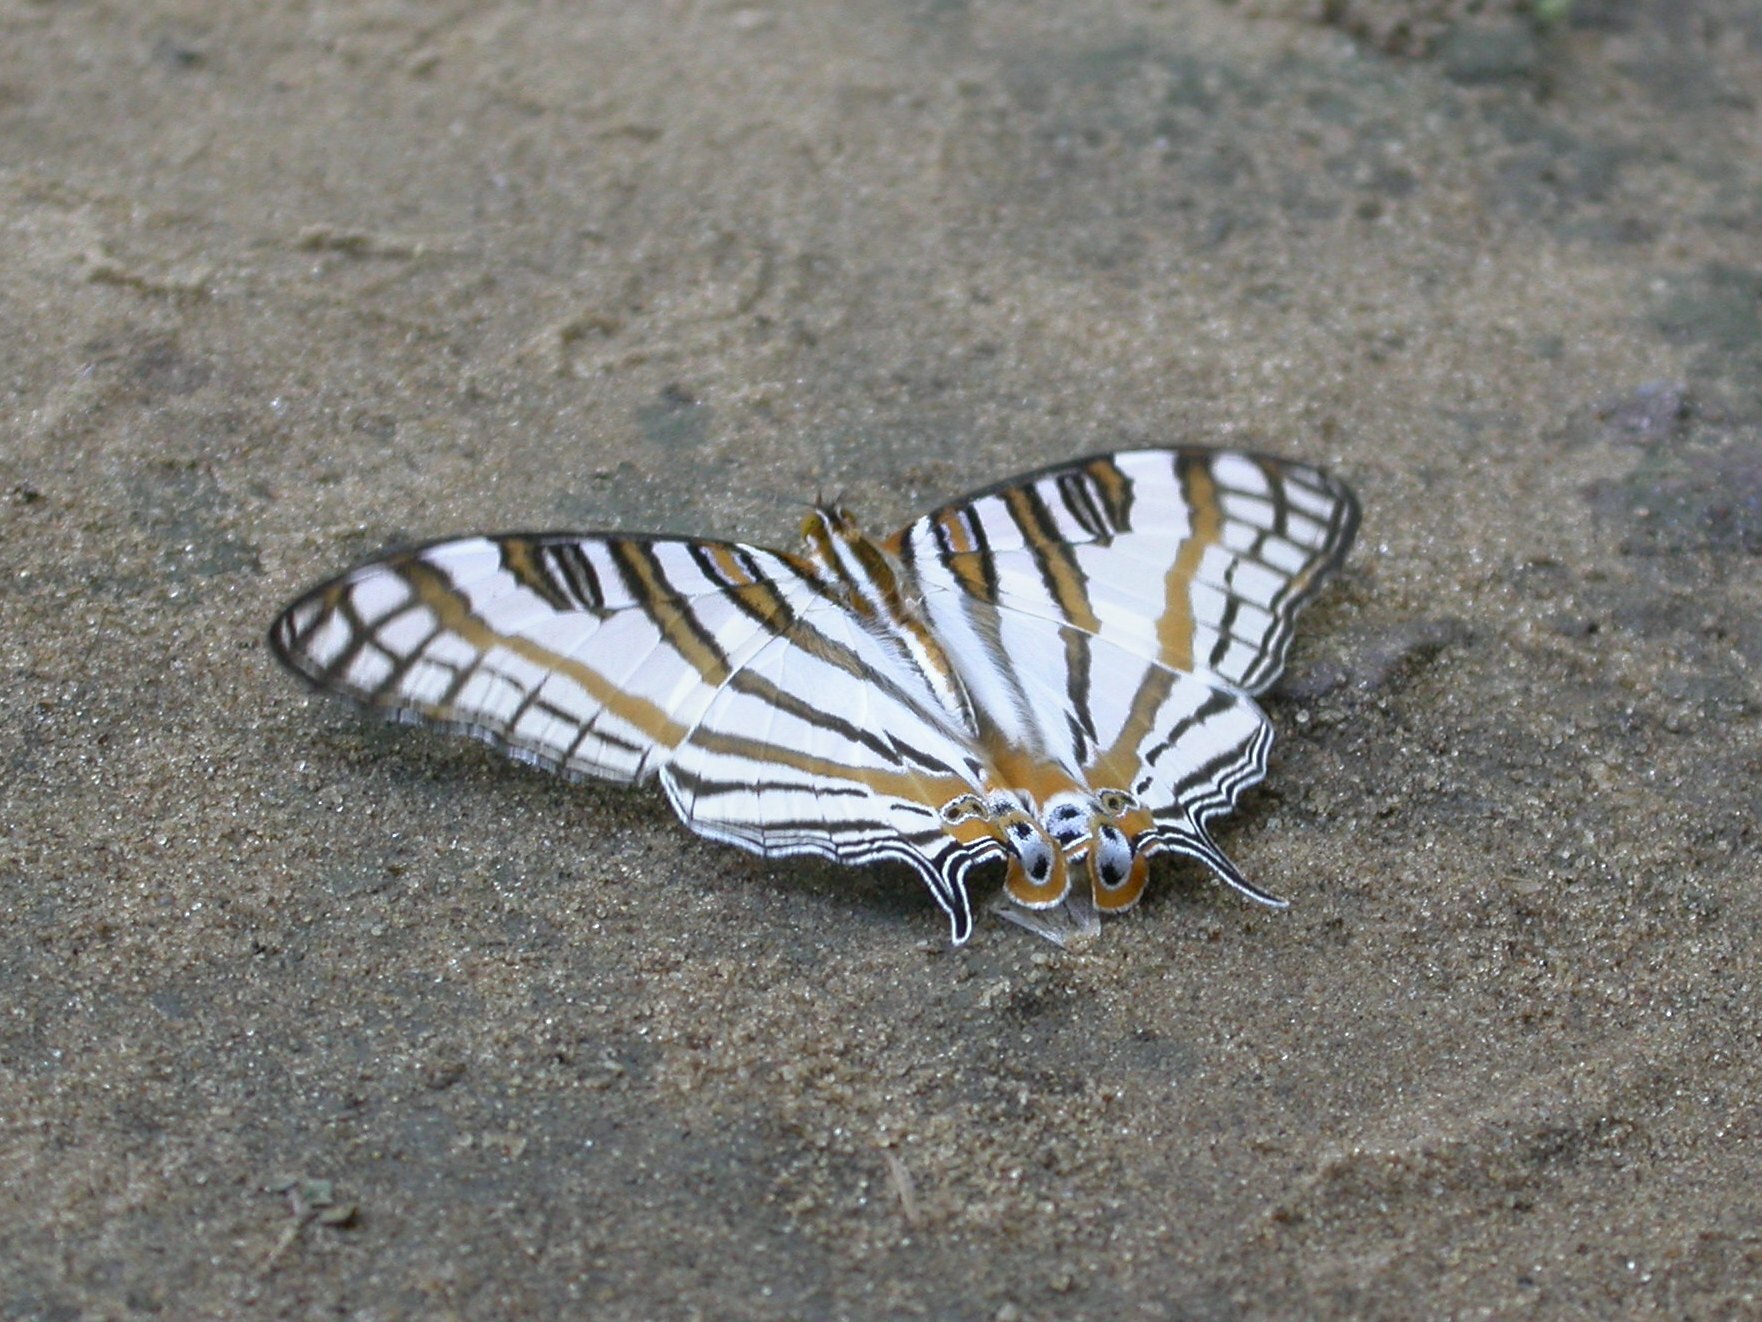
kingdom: Animalia
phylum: Arthropoda
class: Insecta
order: Lepidoptera
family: Nymphalidae
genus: Marpesia
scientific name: Marpesia camillus
